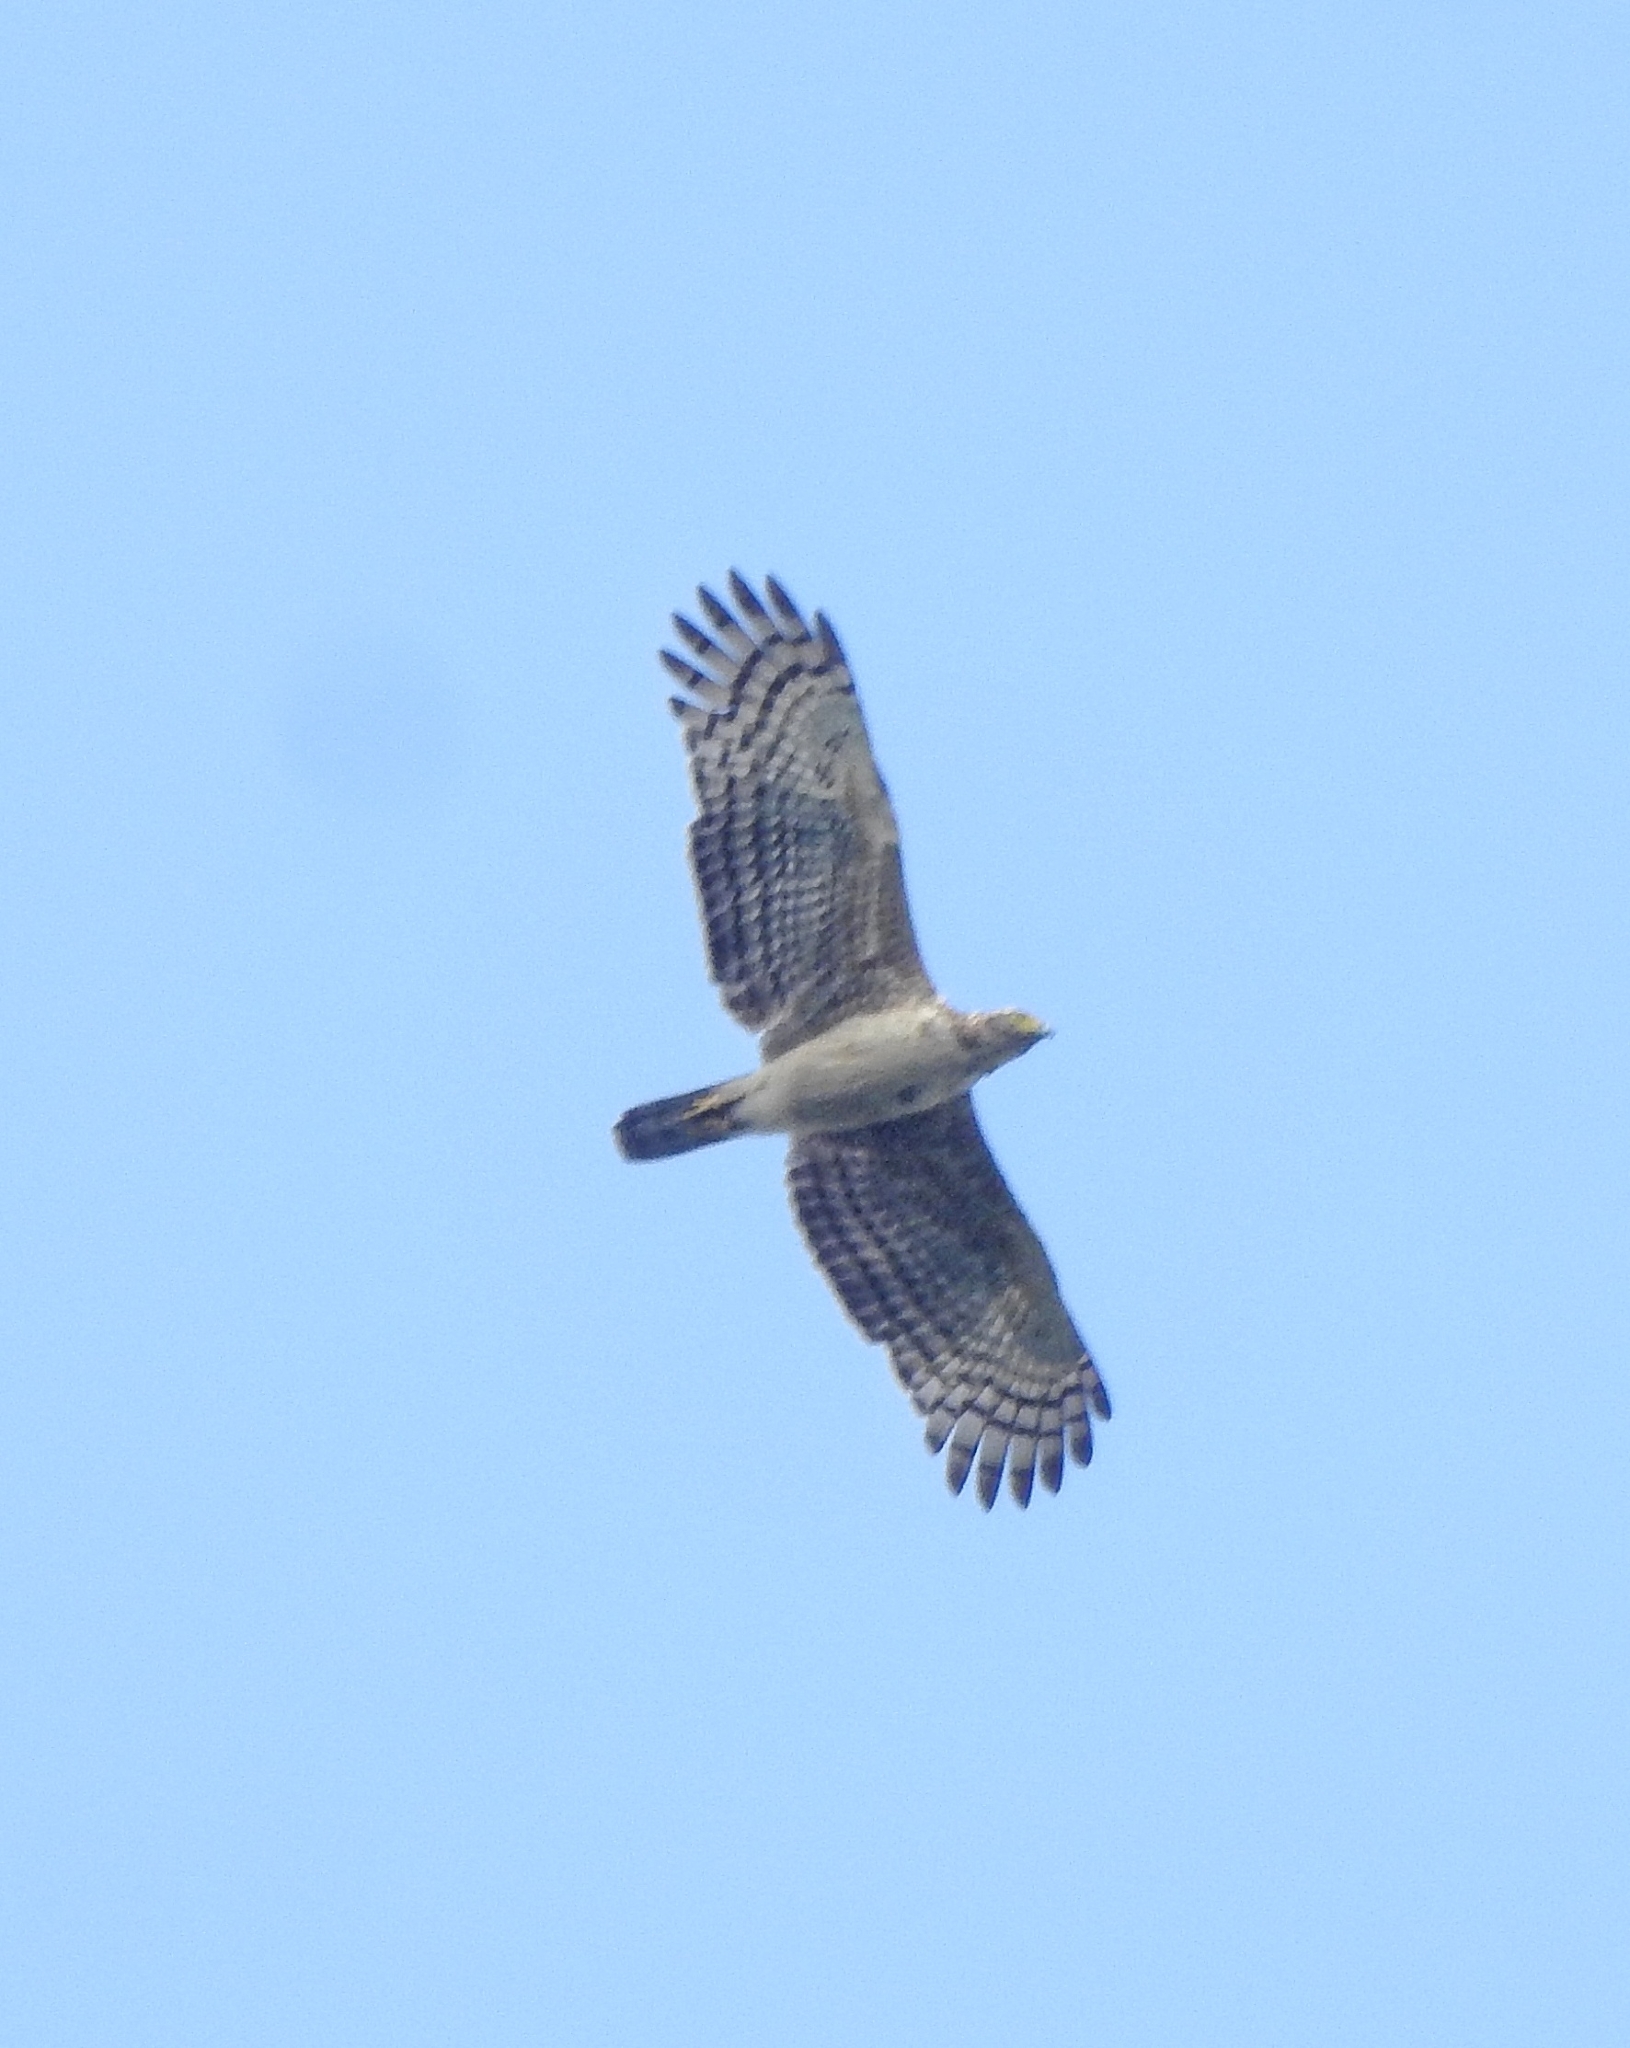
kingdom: Animalia
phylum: Chordata
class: Aves
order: Accipitriformes
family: Accipitridae
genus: Spilornis
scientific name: Spilornis cheela
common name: Crested serpent eagle
